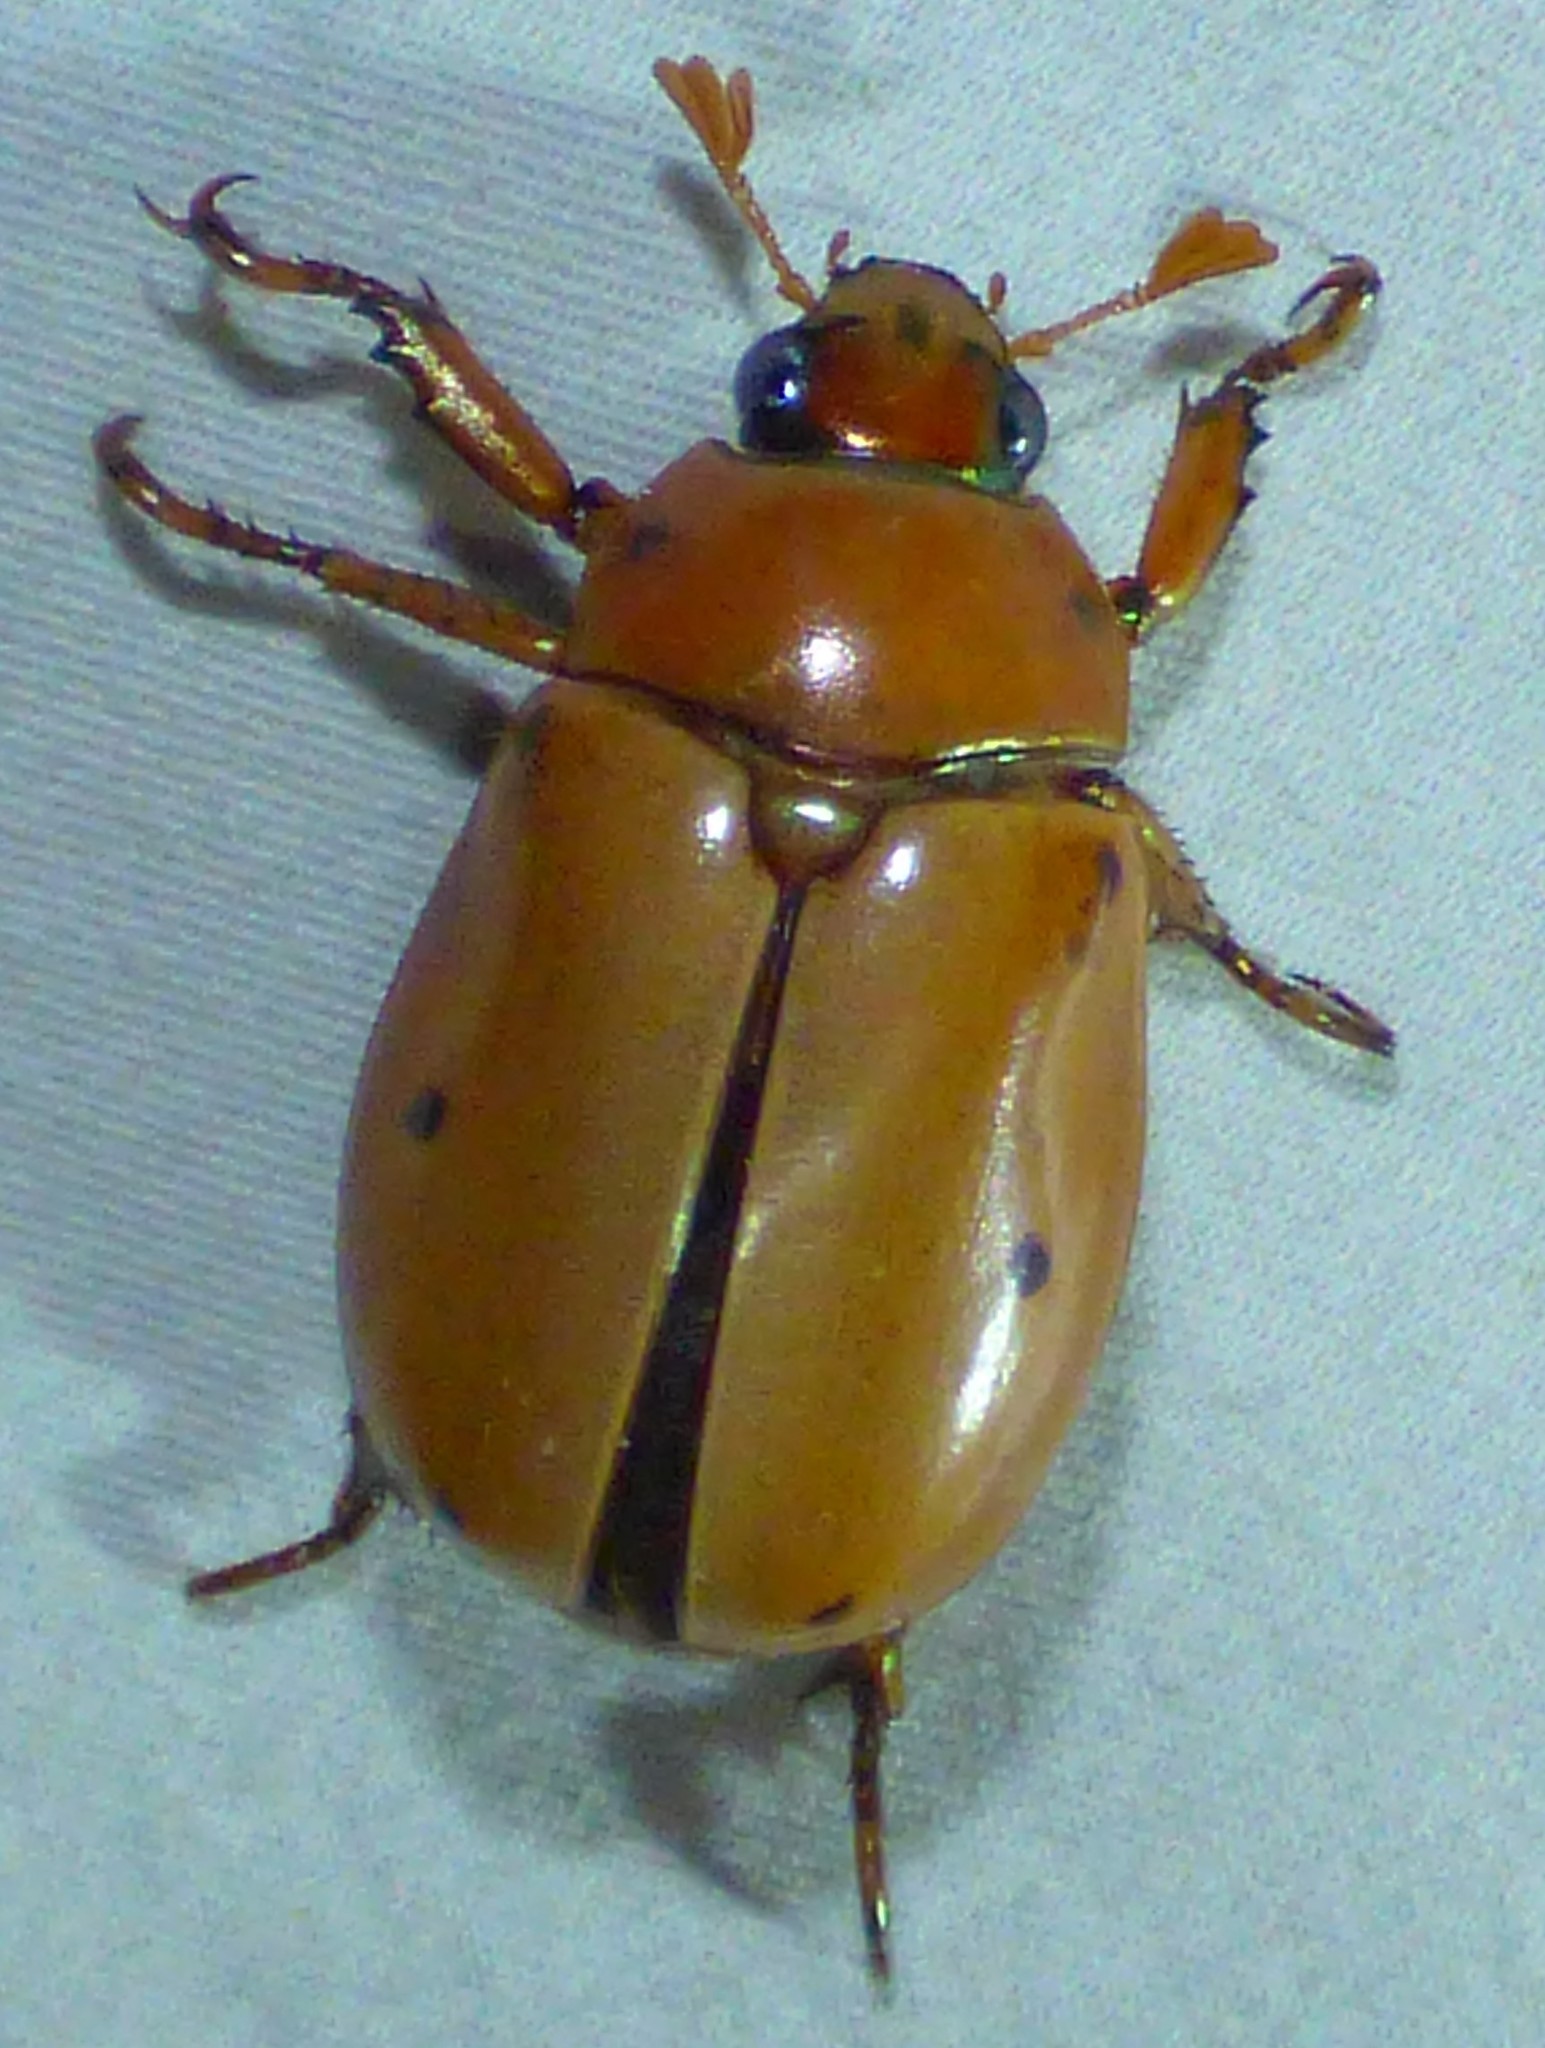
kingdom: Animalia
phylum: Arthropoda
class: Insecta
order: Coleoptera
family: Scarabaeidae
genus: Pelidnota
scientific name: Pelidnota punctata
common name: Grapevine beetle
